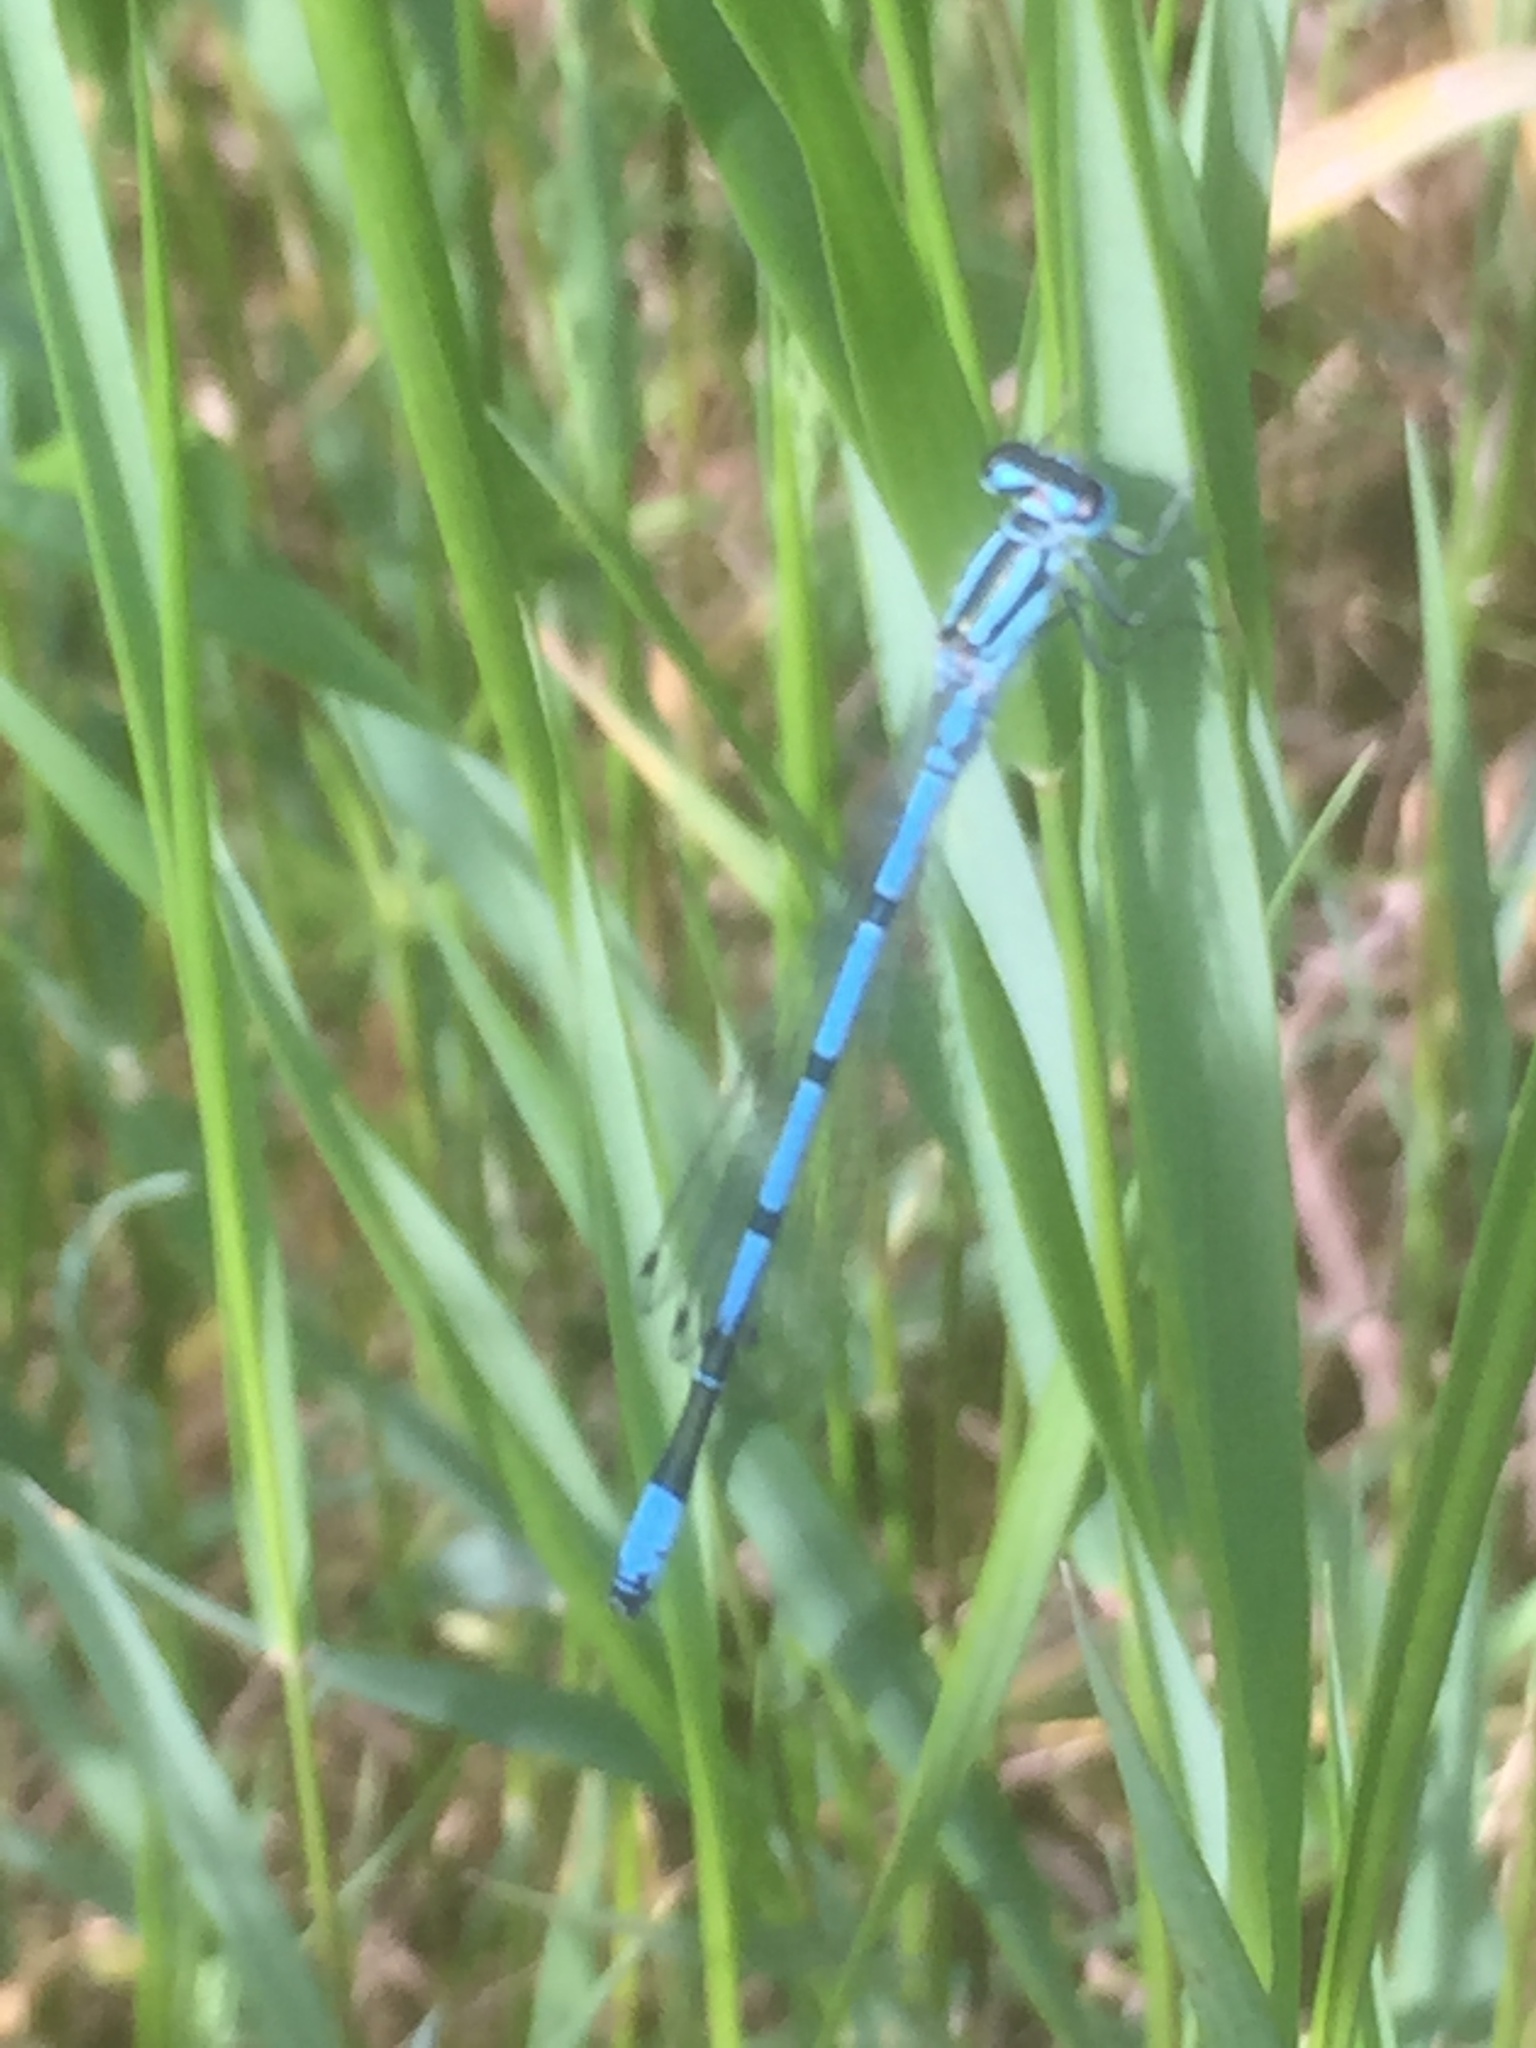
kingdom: Animalia
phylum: Arthropoda
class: Insecta
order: Odonata
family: Coenagrionidae
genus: Coenagrion
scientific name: Coenagrion puella
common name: Azure damselfly
